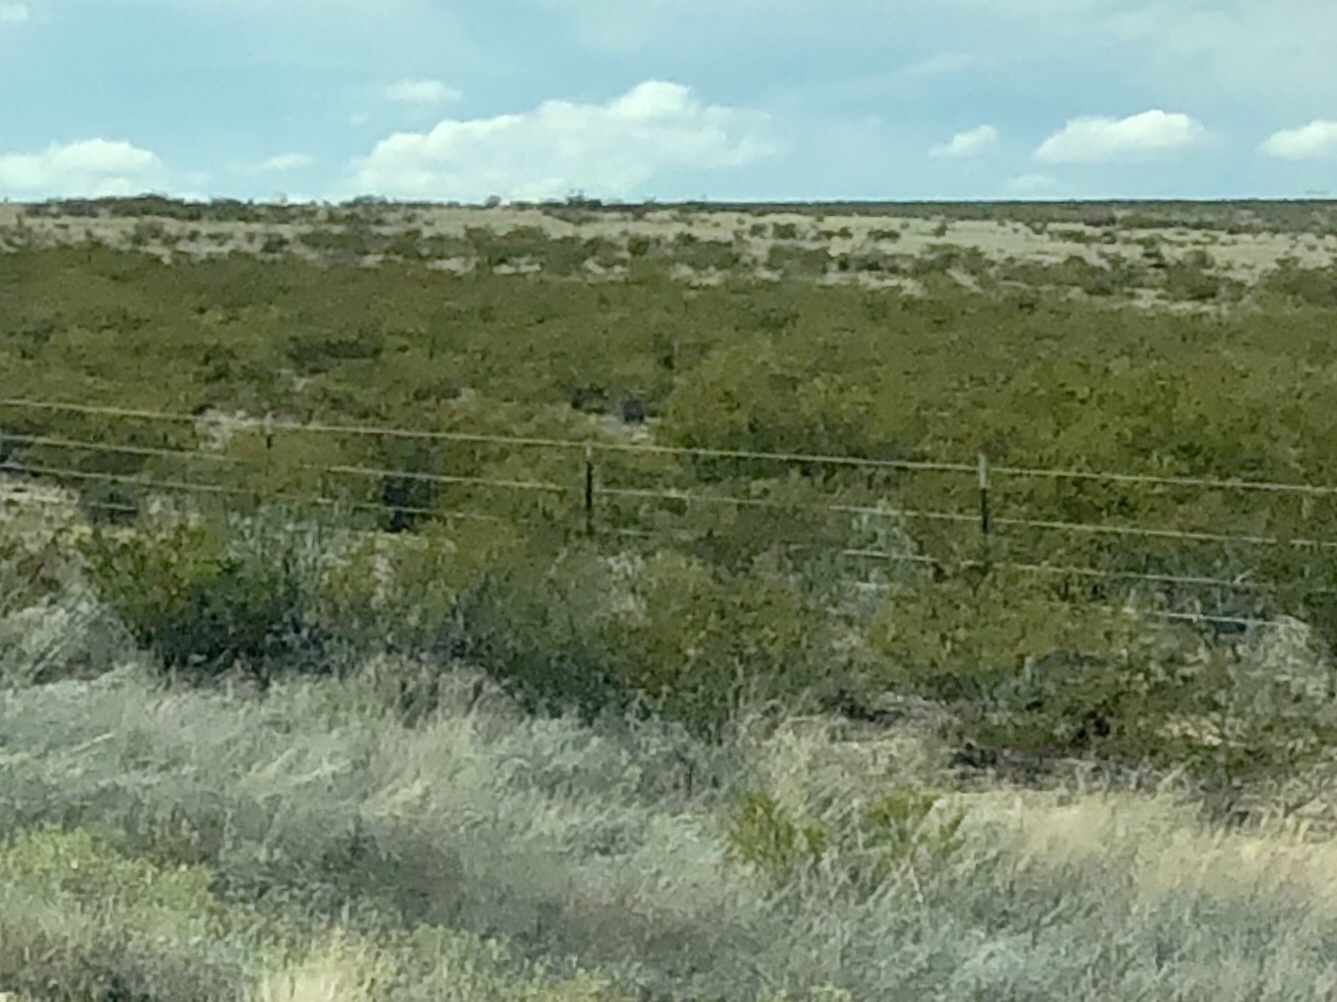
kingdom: Plantae
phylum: Tracheophyta
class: Magnoliopsida
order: Zygophyllales
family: Zygophyllaceae
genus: Larrea
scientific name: Larrea tridentata
